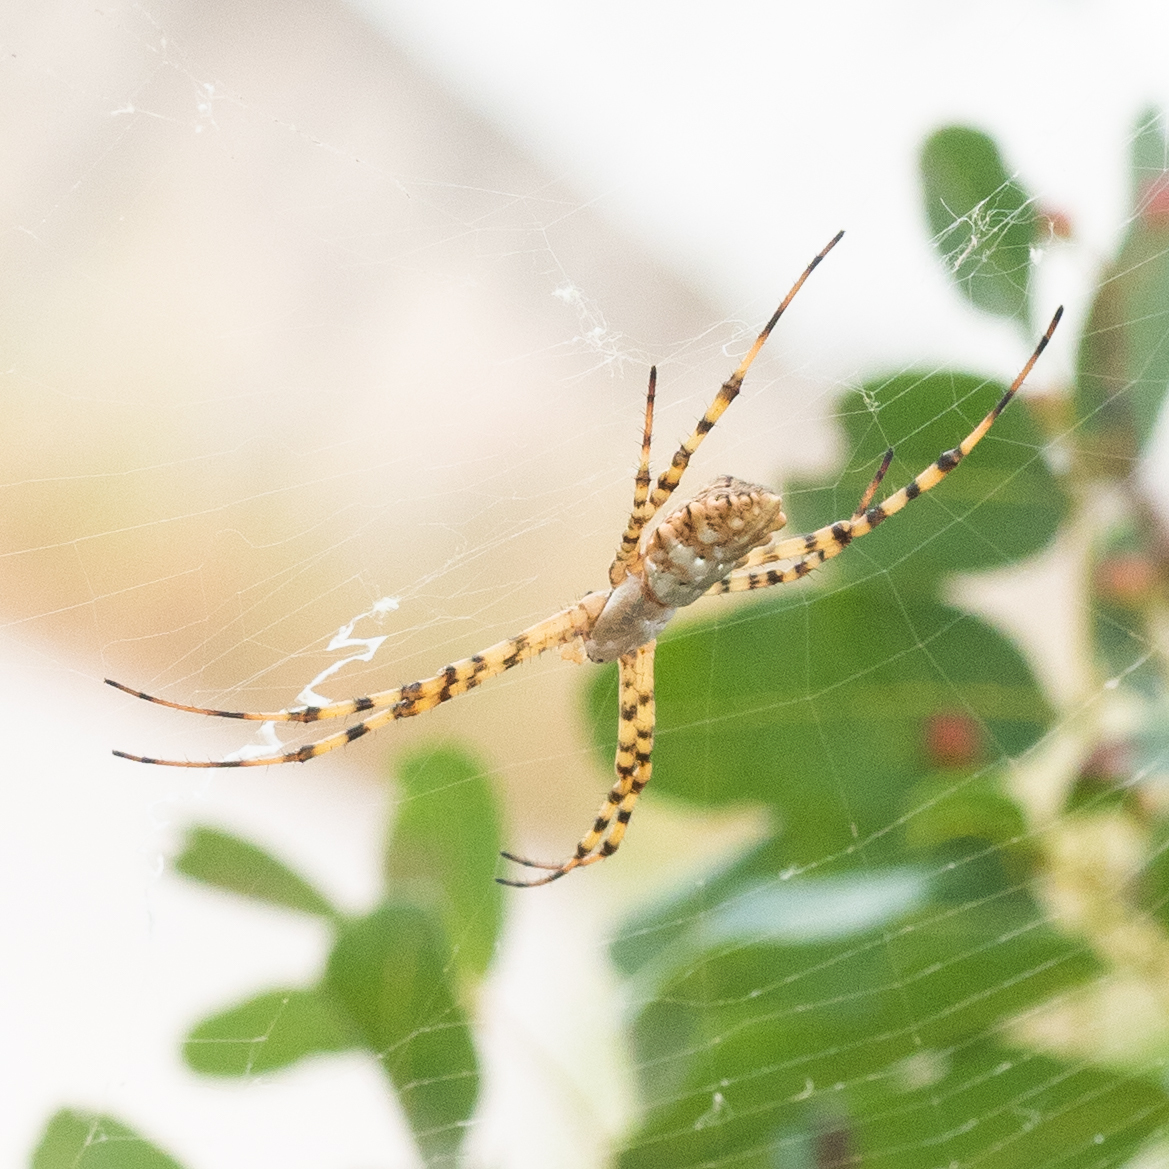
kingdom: Animalia
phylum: Arthropoda
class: Arachnida
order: Araneae
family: Araneidae
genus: Argiope
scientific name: Argiope lobata
